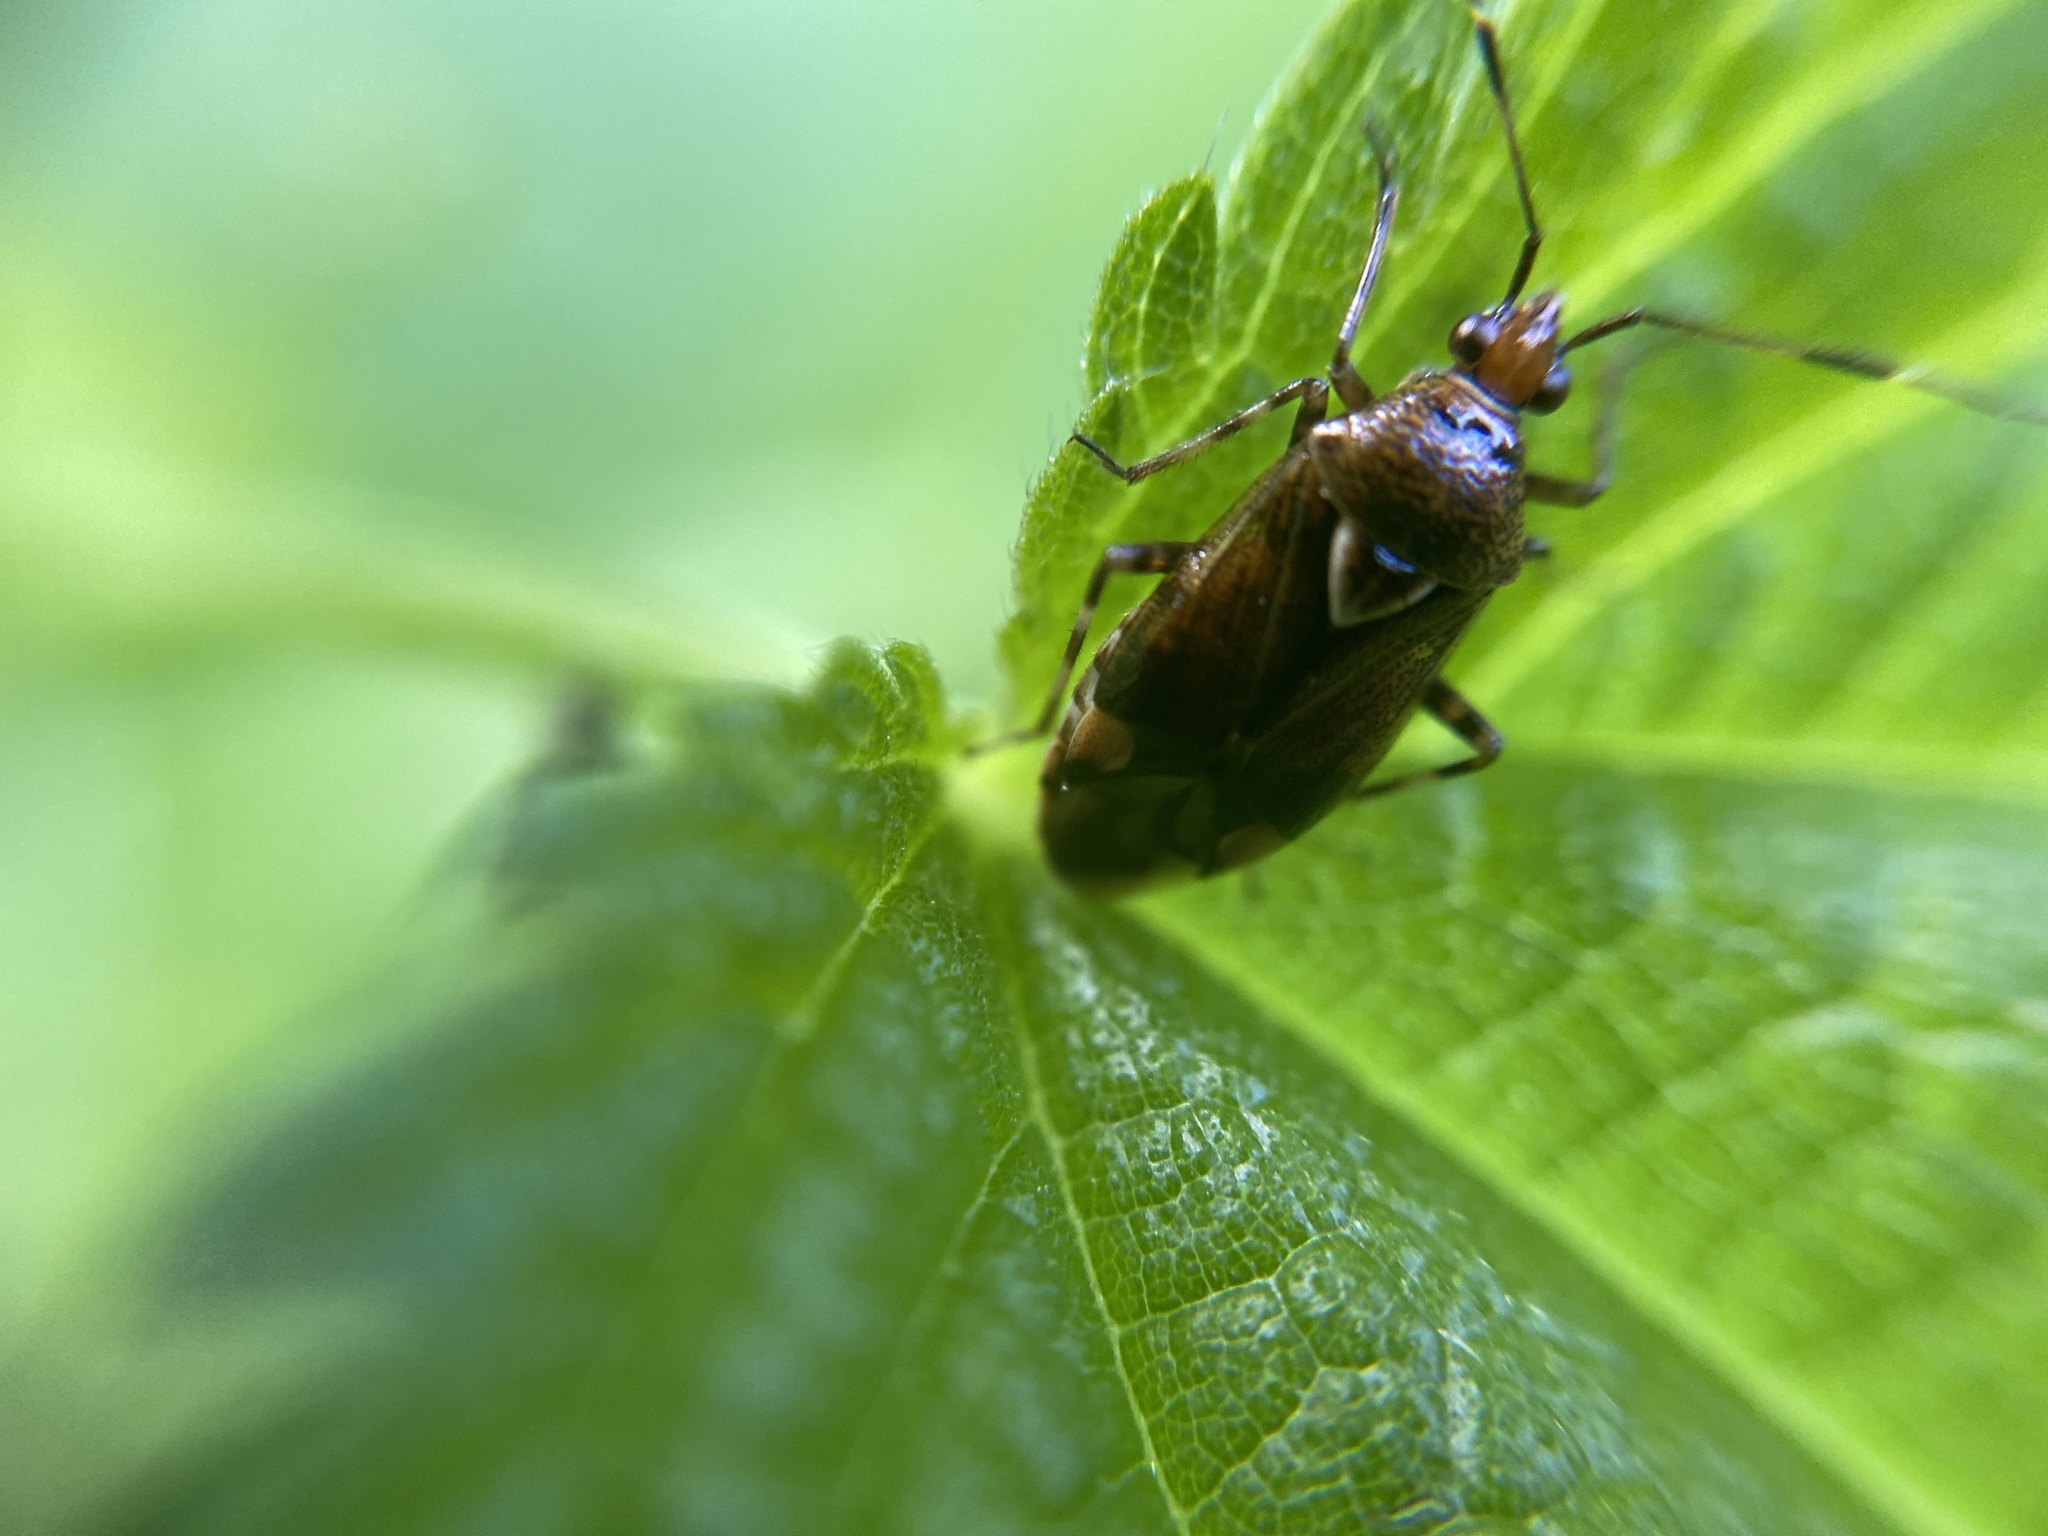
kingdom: Animalia
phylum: Arthropoda
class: Insecta
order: Hemiptera
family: Miridae
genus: Deraeocoris
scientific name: Deraeocoris flavilinea
